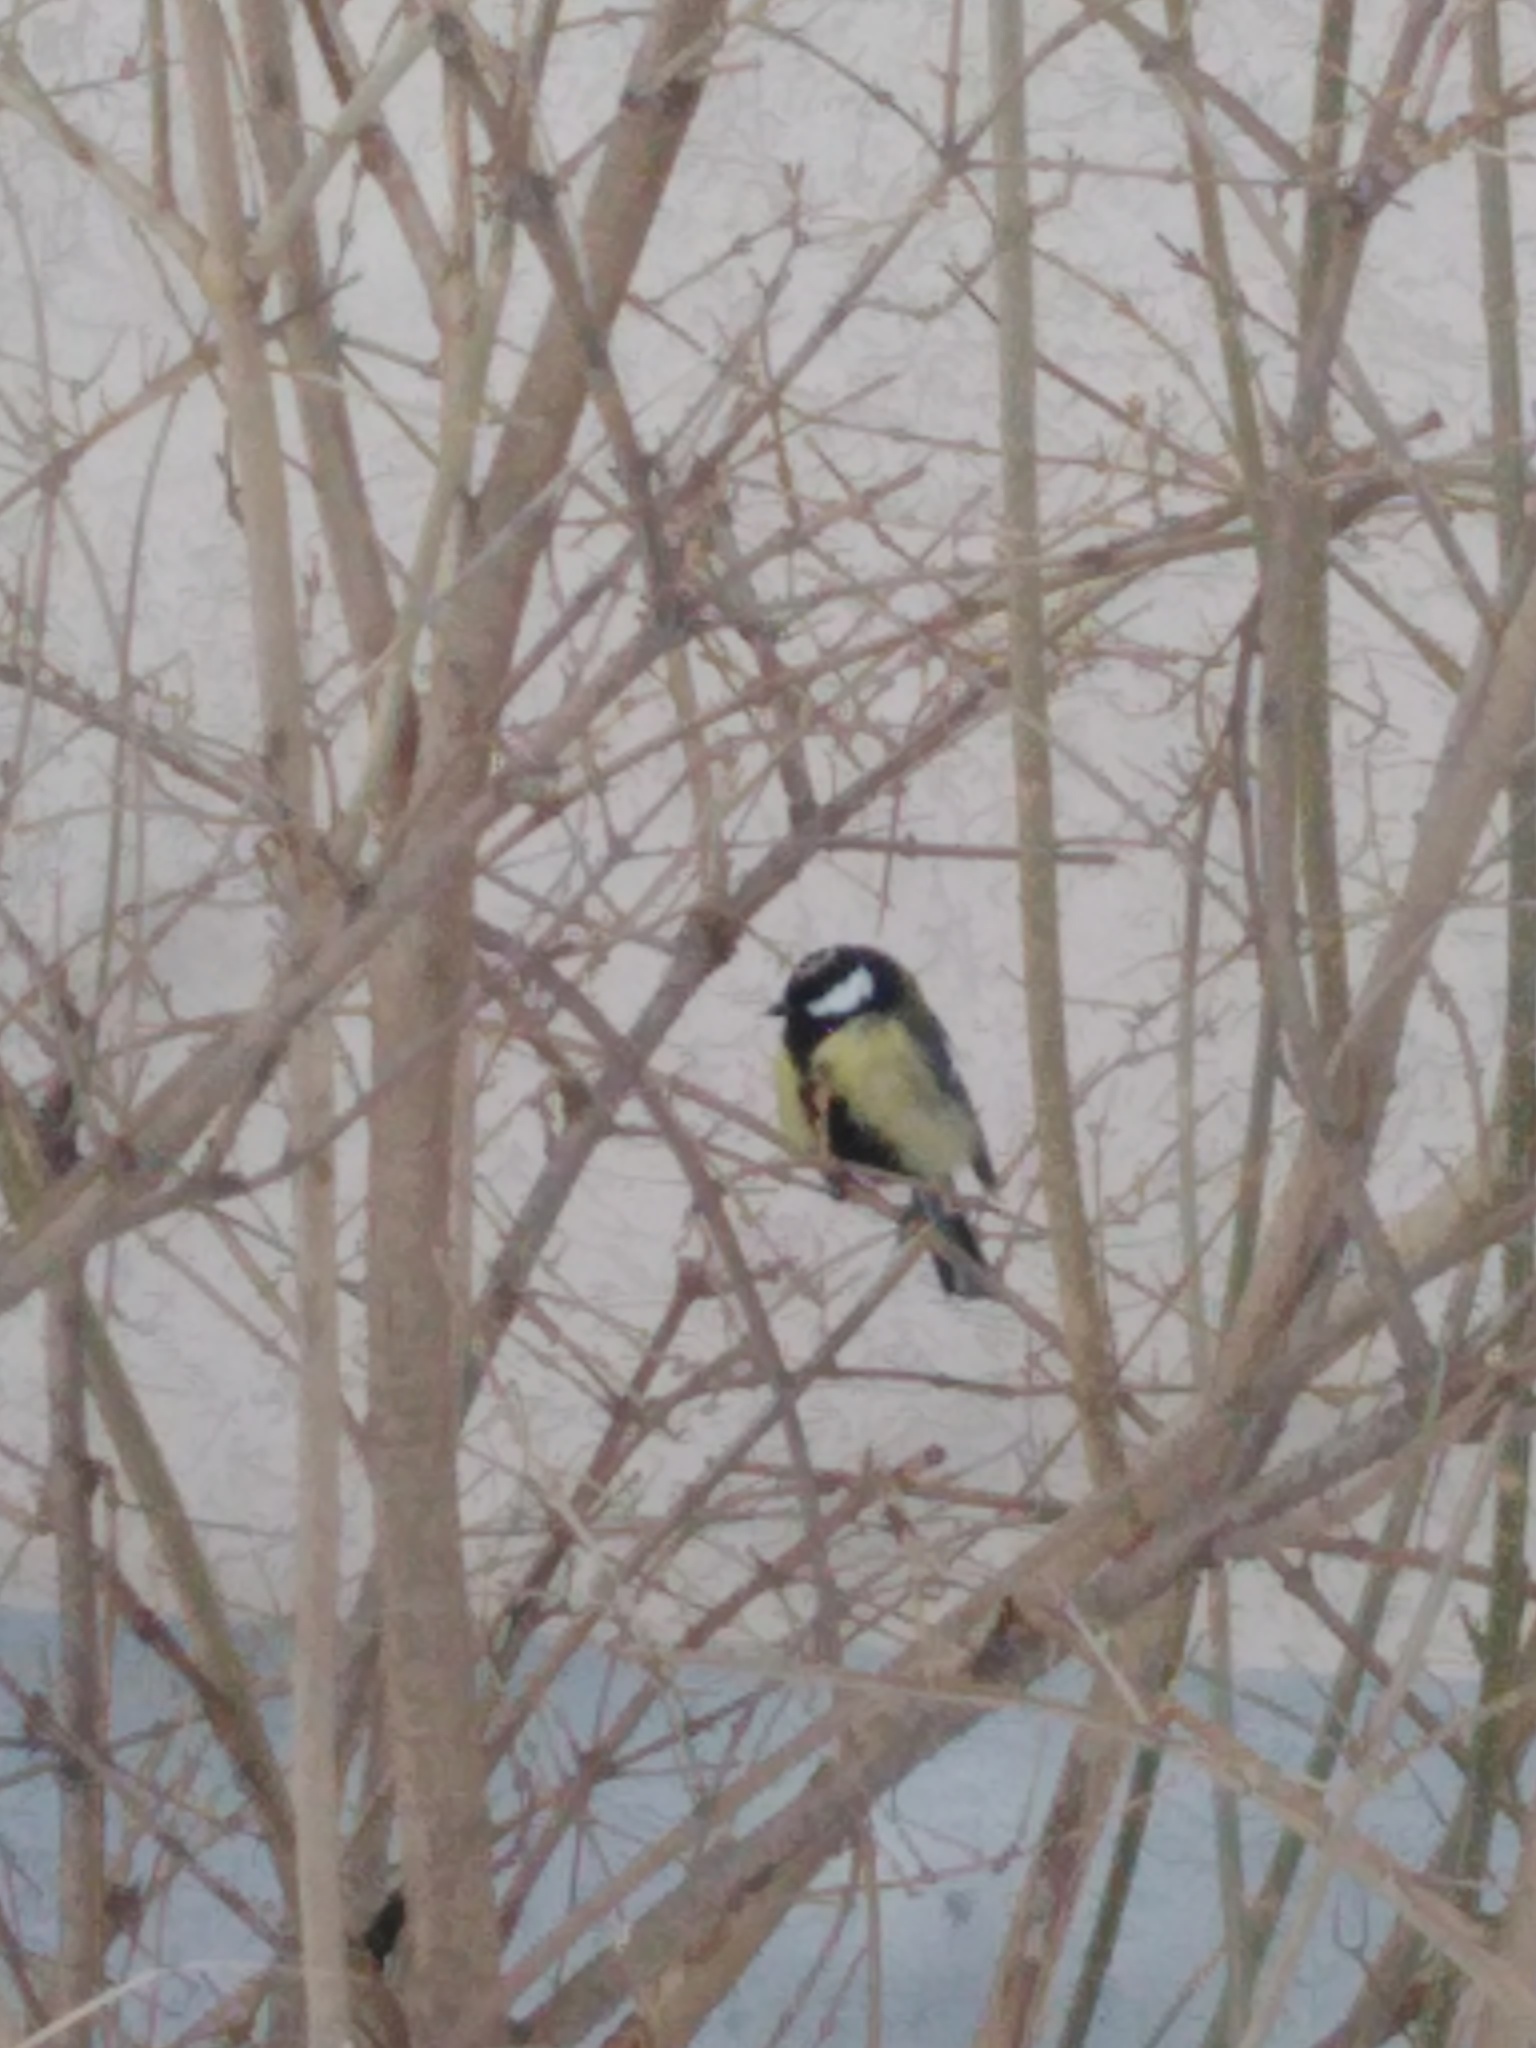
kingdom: Animalia
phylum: Chordata
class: Aves
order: Passeriformes
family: Paridae
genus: Parus
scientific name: Parus major
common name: Great tit
